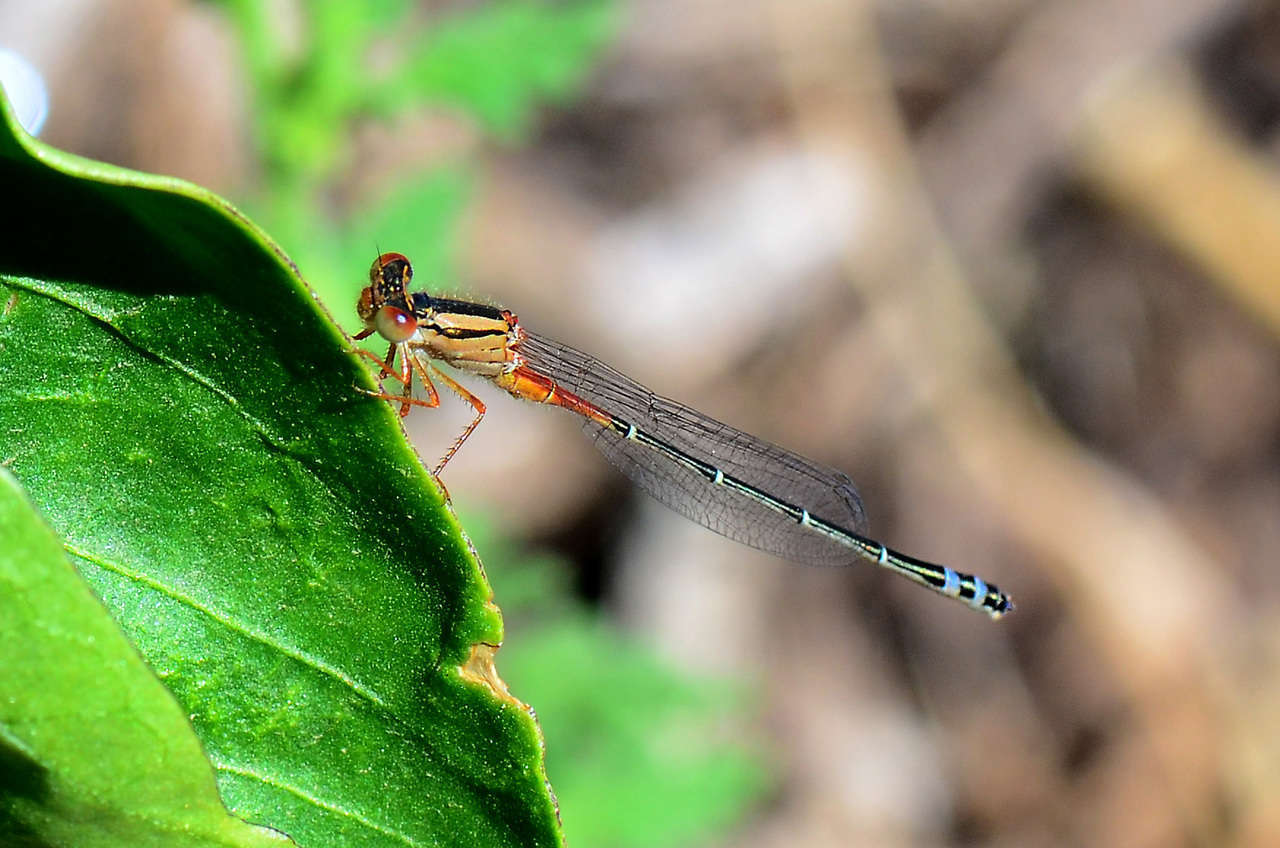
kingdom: Animalia
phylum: Arthropoda
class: Insecta
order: Odonata
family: Coenagrionidae
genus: Xanthagrion
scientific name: Xanthagrion erythroneurum
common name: Red and blue damsel
